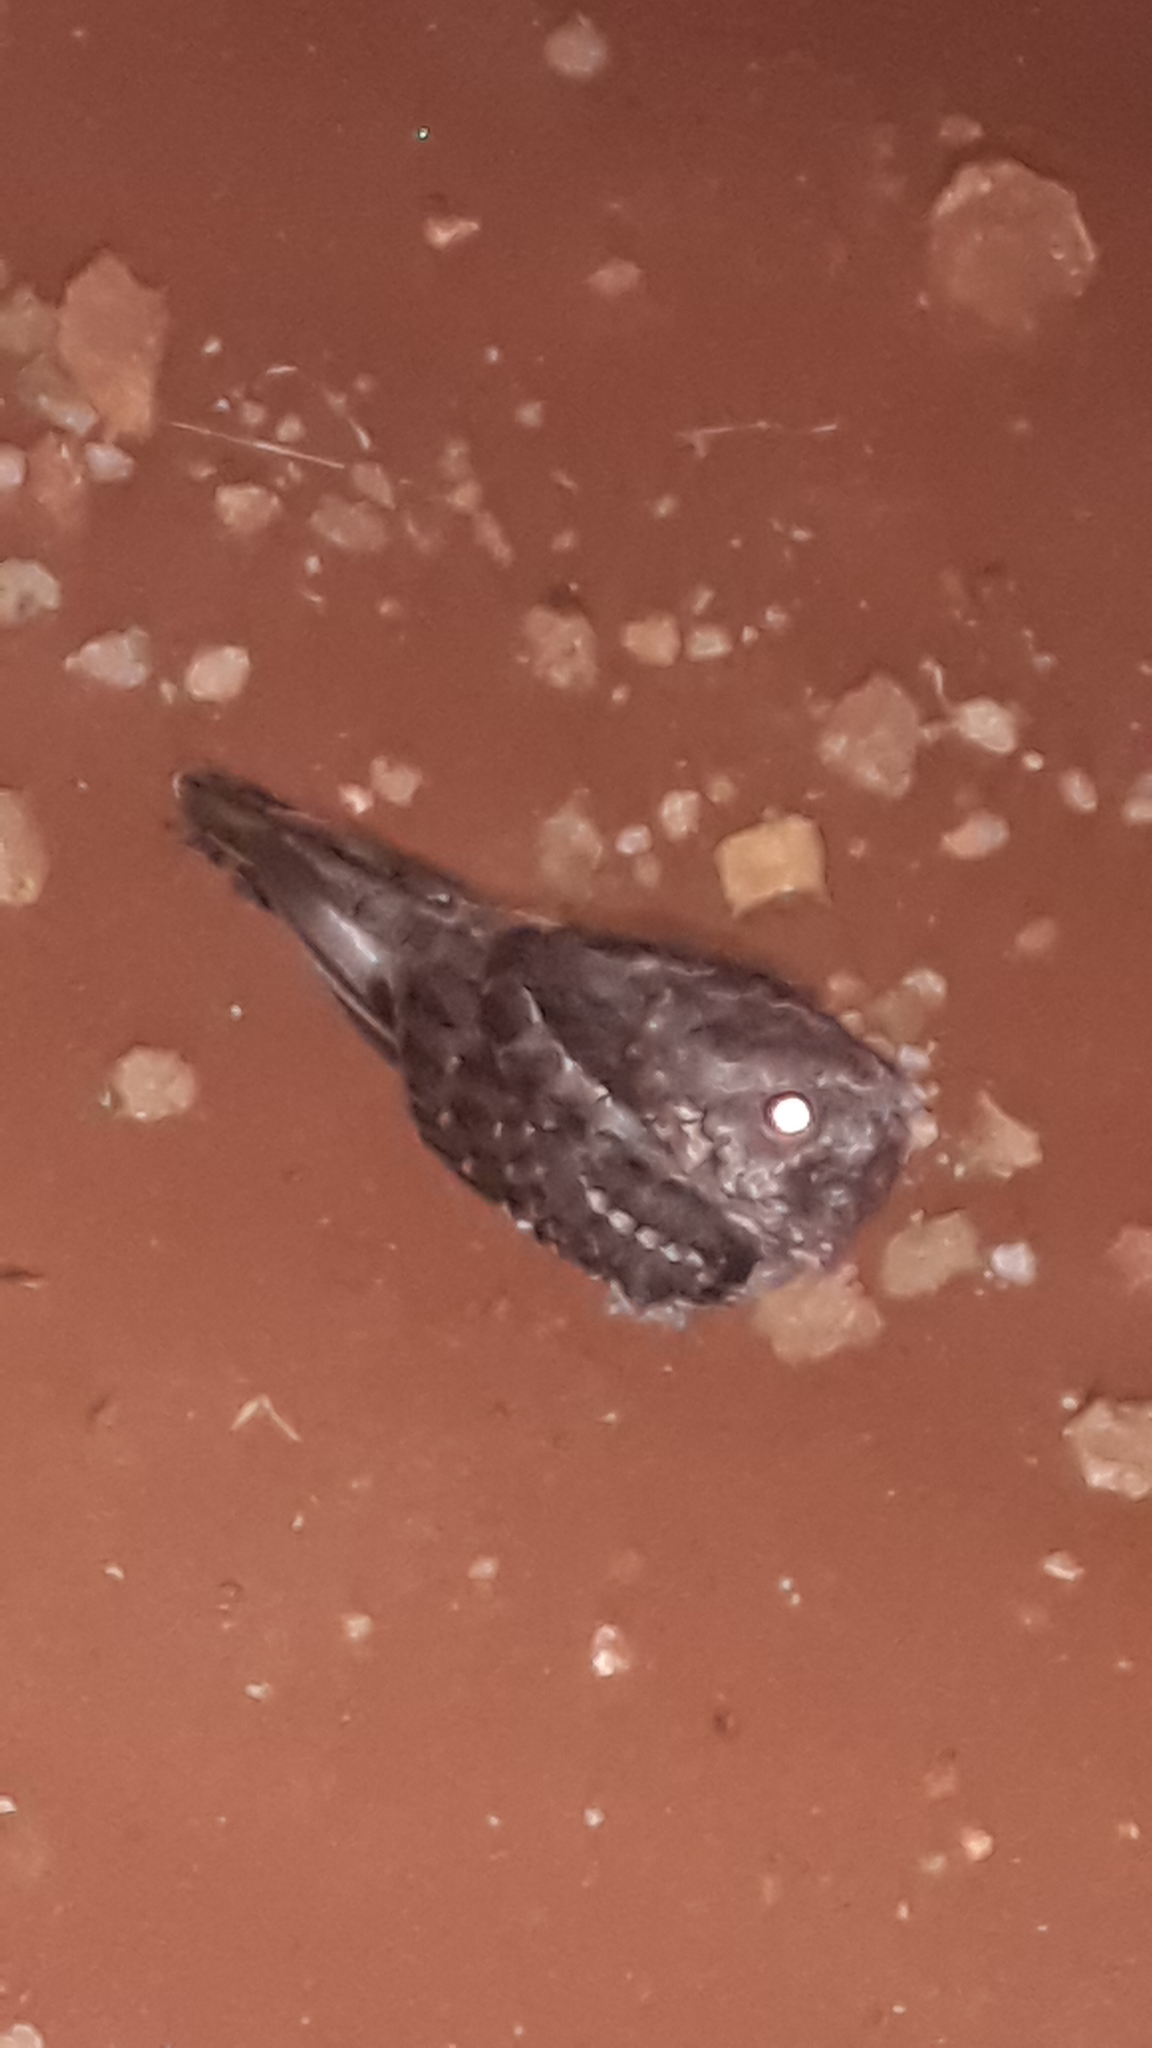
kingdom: Animalia
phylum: Chordata
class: Aves
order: Caprimulgiformes
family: Caprimulgidae
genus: Hydropsalis
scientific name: Hydropsalis torquata
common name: Scissor-tailed nightjar
